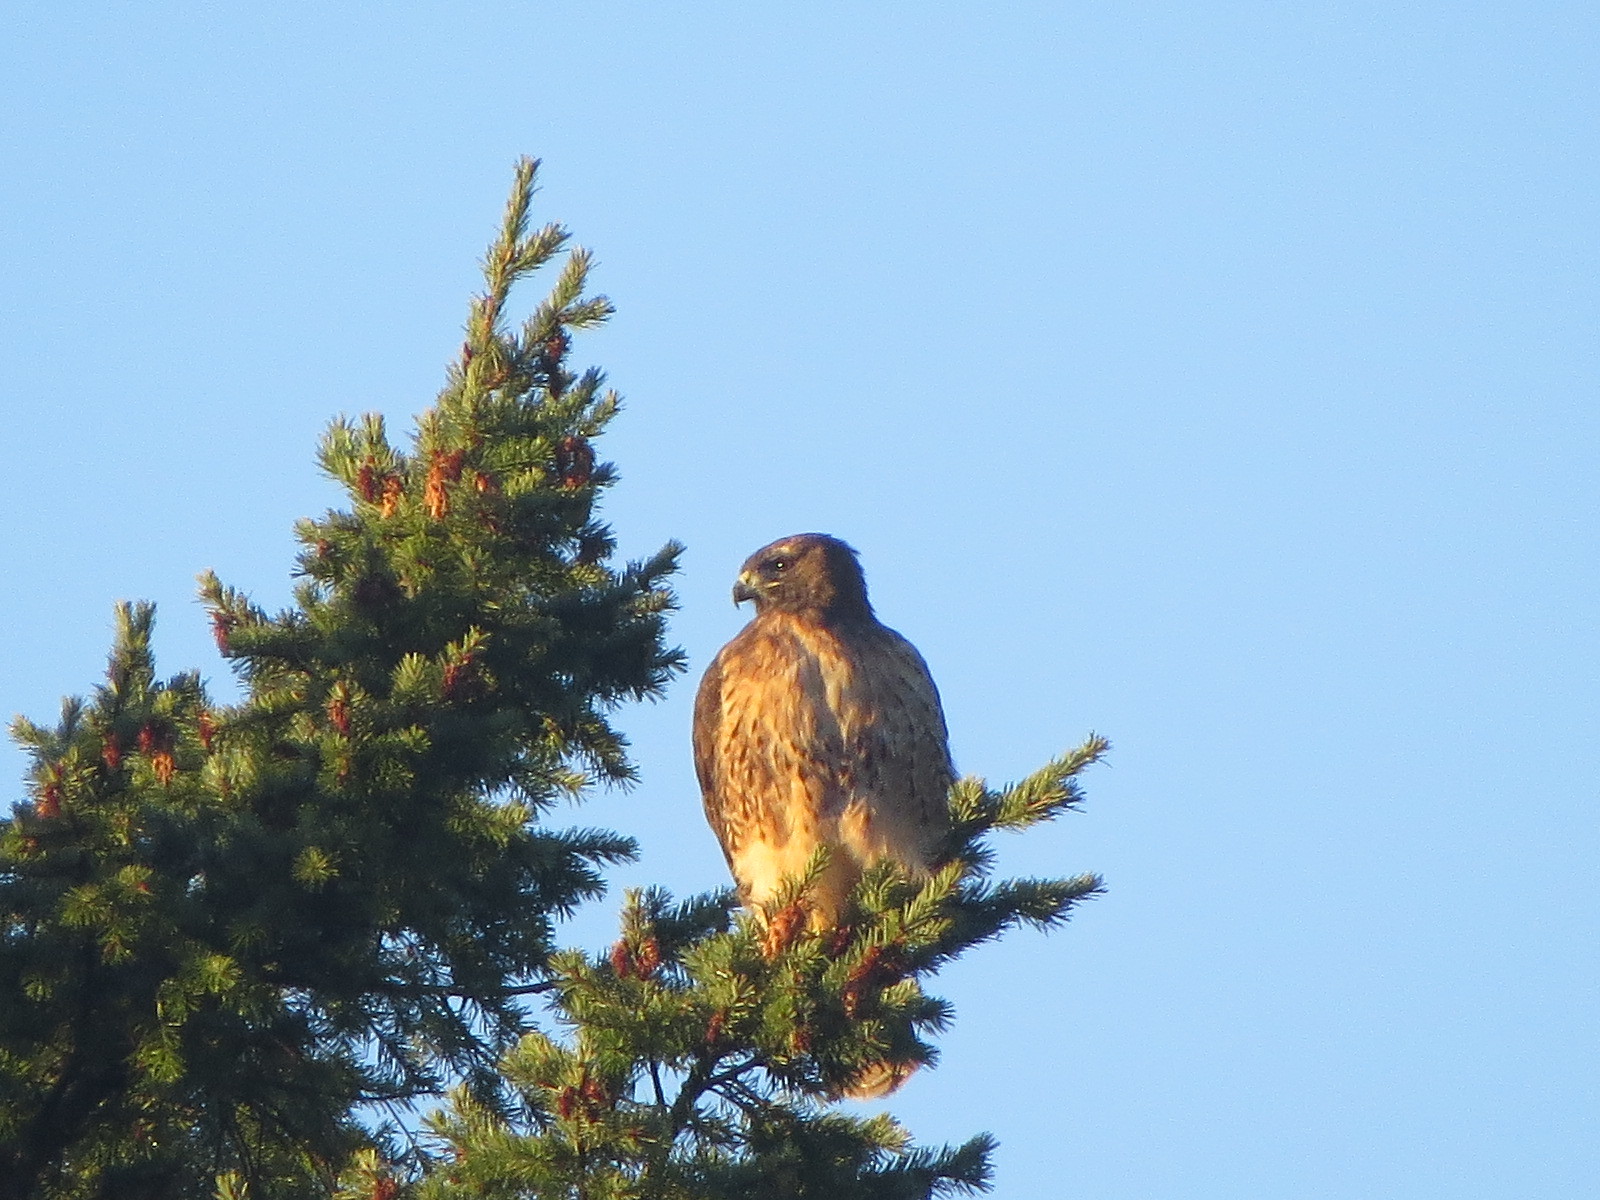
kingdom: Animalia
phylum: Chordata
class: Aves
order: Accipitriformes
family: Accipitridae
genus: Buteo
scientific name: Buteo jamaicensis
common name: Red-tailed hawk
